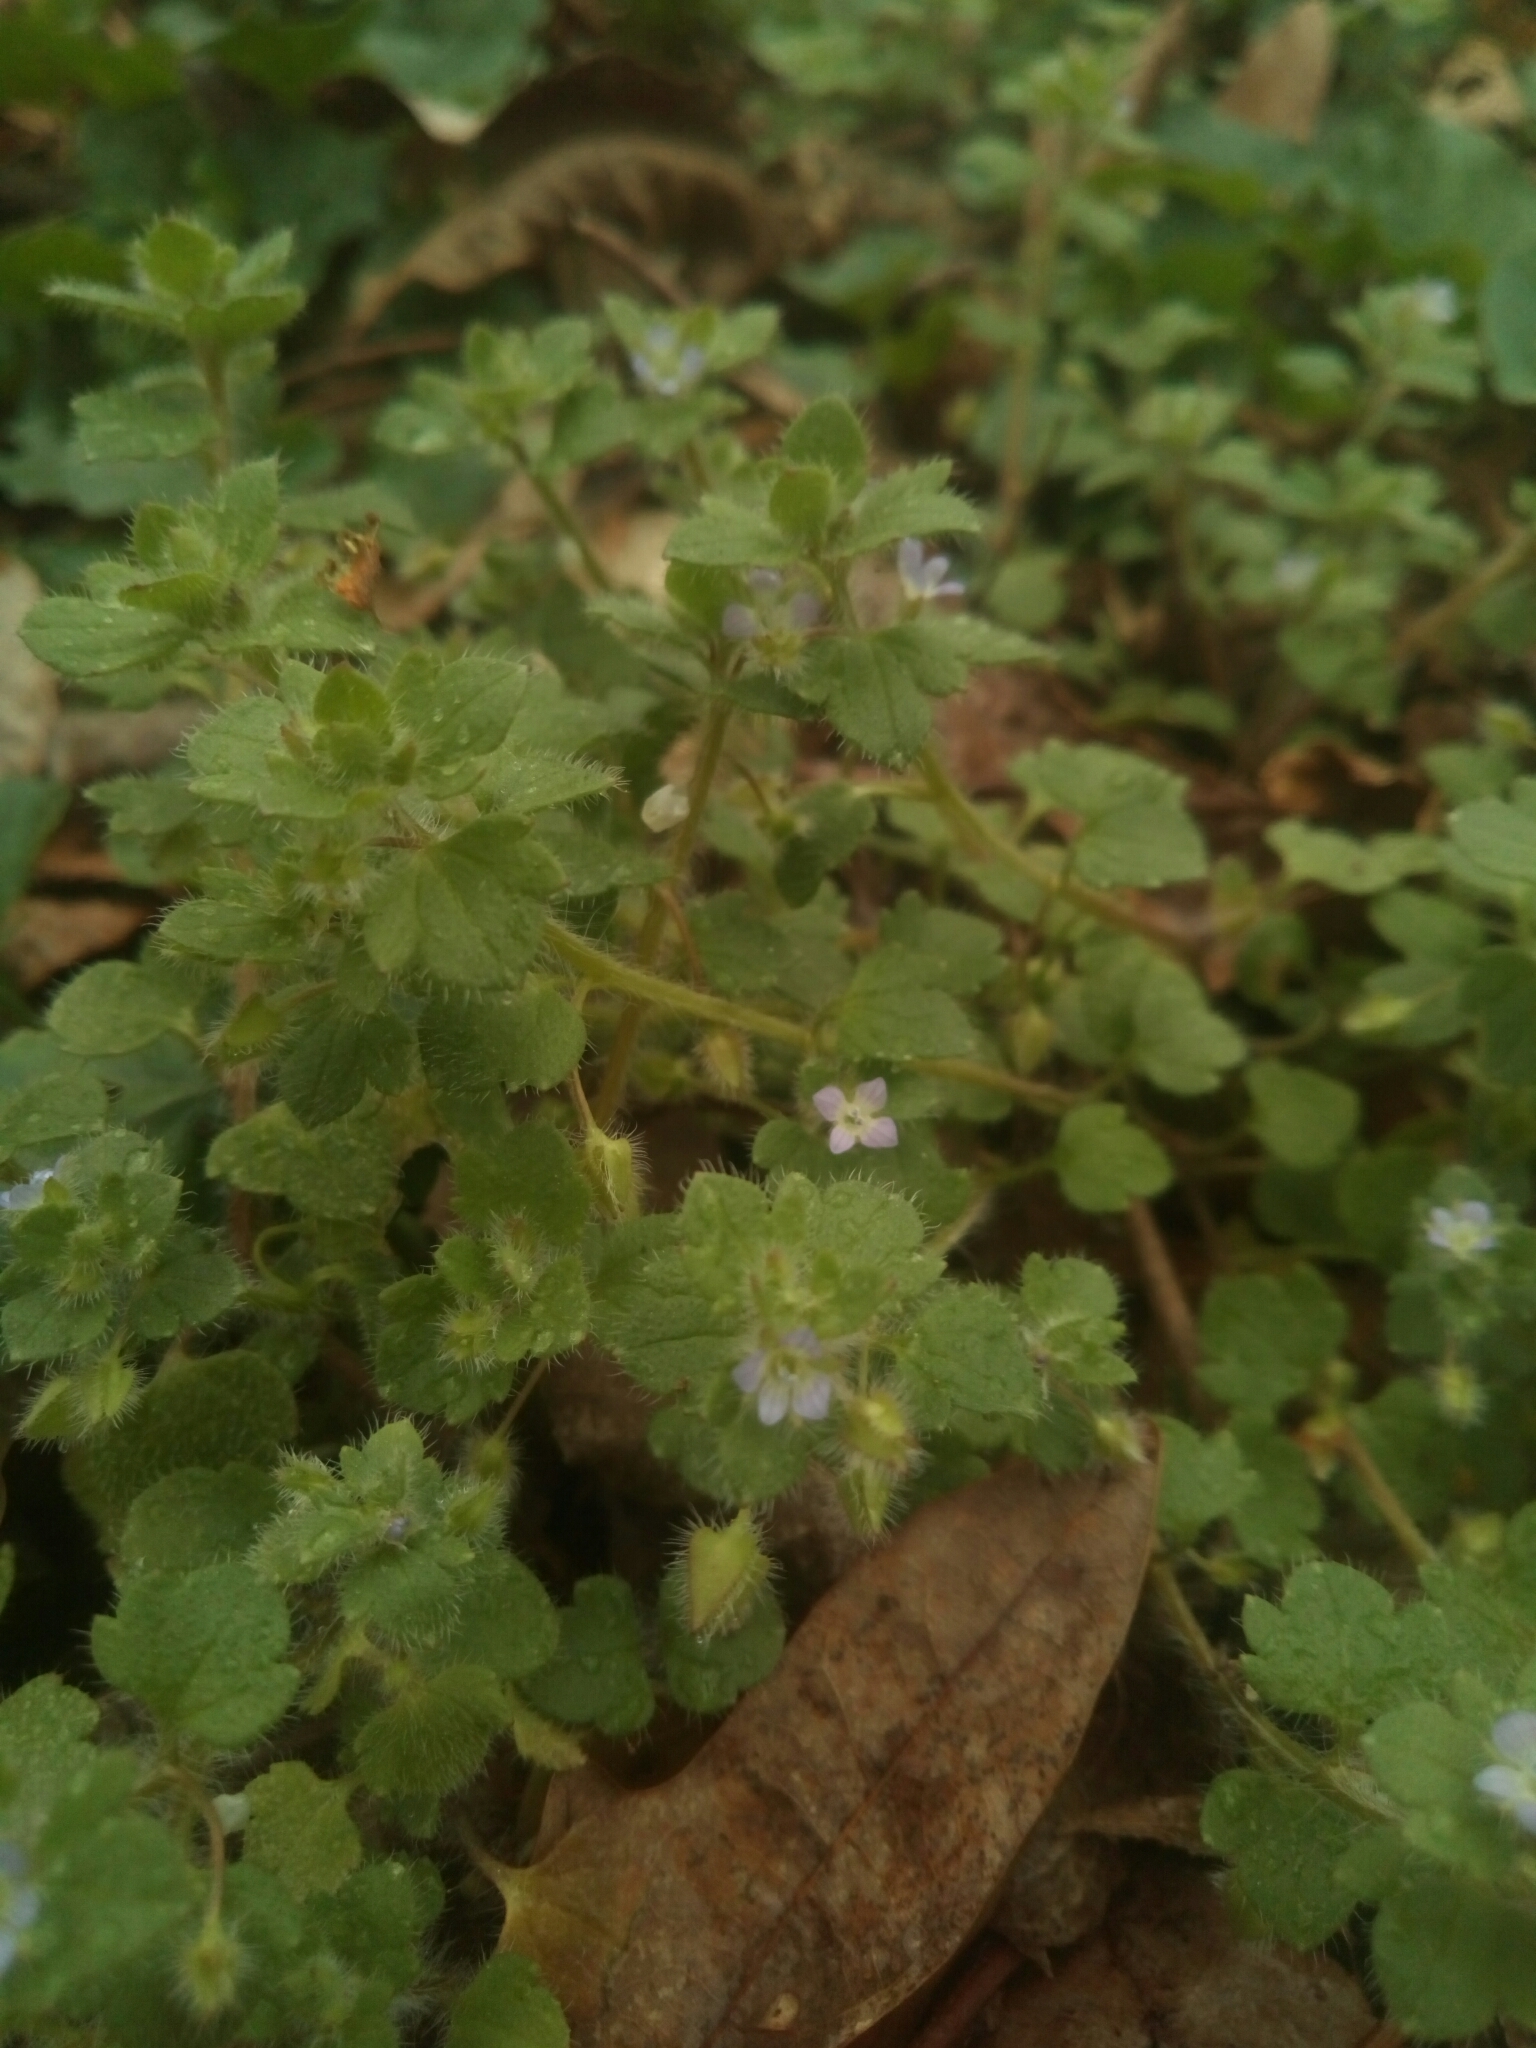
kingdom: Plantae
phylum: Tracheophyta
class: Magnoliopsida
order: Lamiales
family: Plantaginaceae
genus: Veronica
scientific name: Veronica hederifolia
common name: Ivy-leaved speedwell
